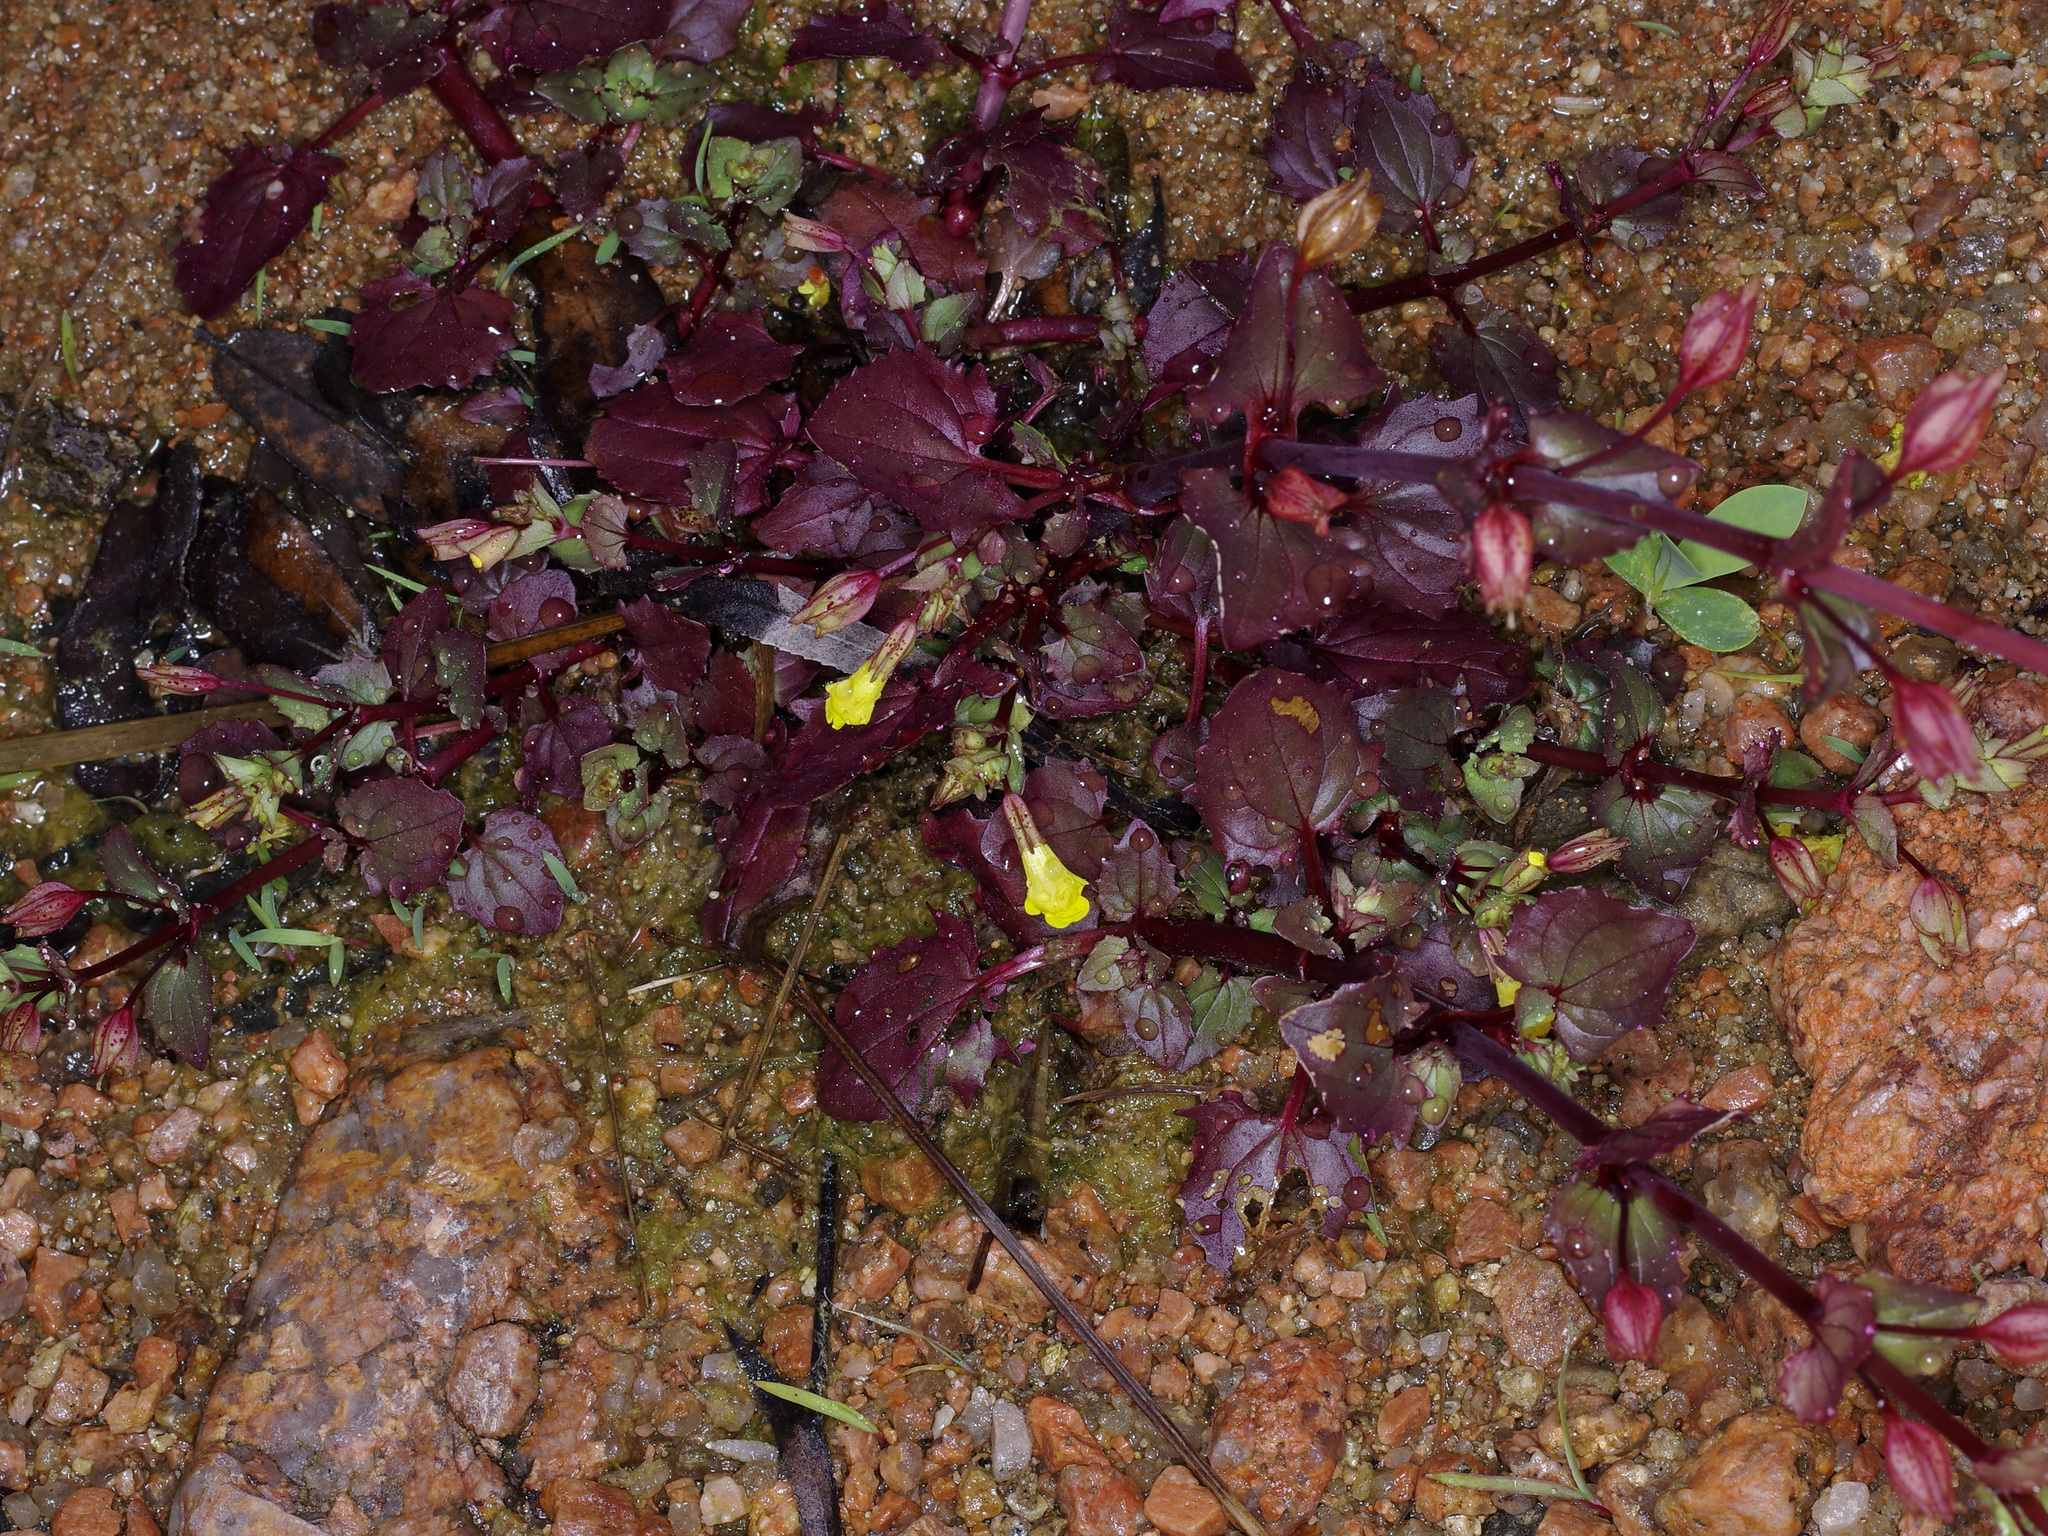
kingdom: Plantae
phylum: Tracheophyta
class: Magnoliopsida
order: Lamiales
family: Phrymaceae
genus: Erythranthe
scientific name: Erythranthe inamoena
